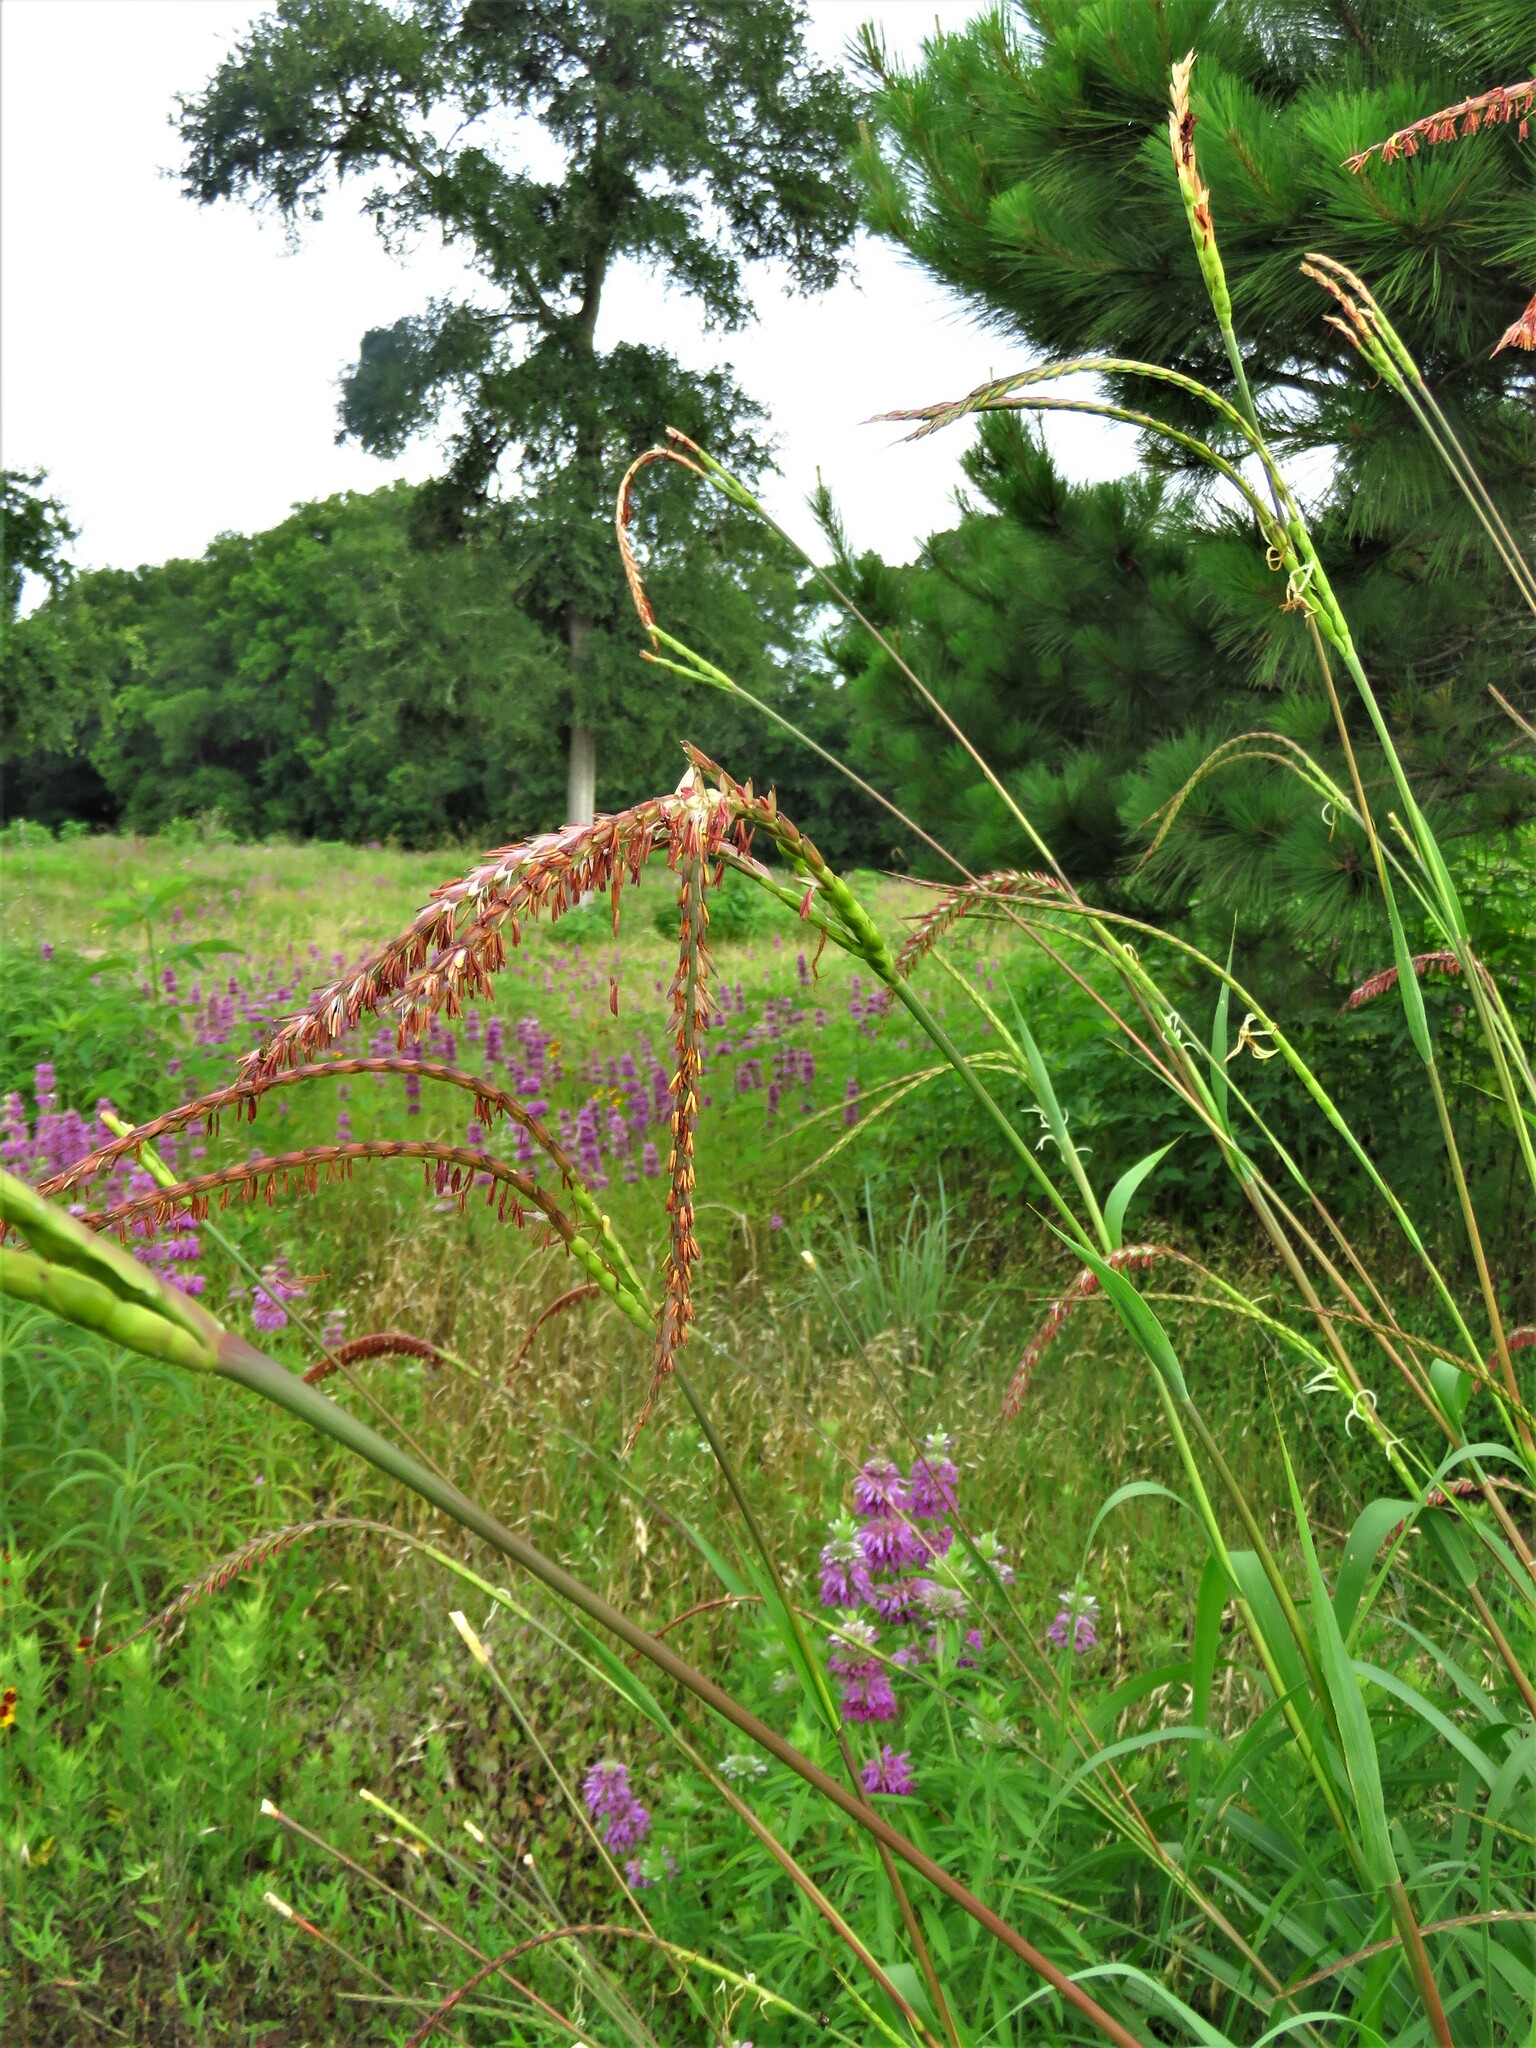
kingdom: Plantae
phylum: Tracheophyta
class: Liliopsida
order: Poales
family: Poaceae
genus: Tripsacum
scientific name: Tripsacum dactyloides
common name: Buffalo-grass
